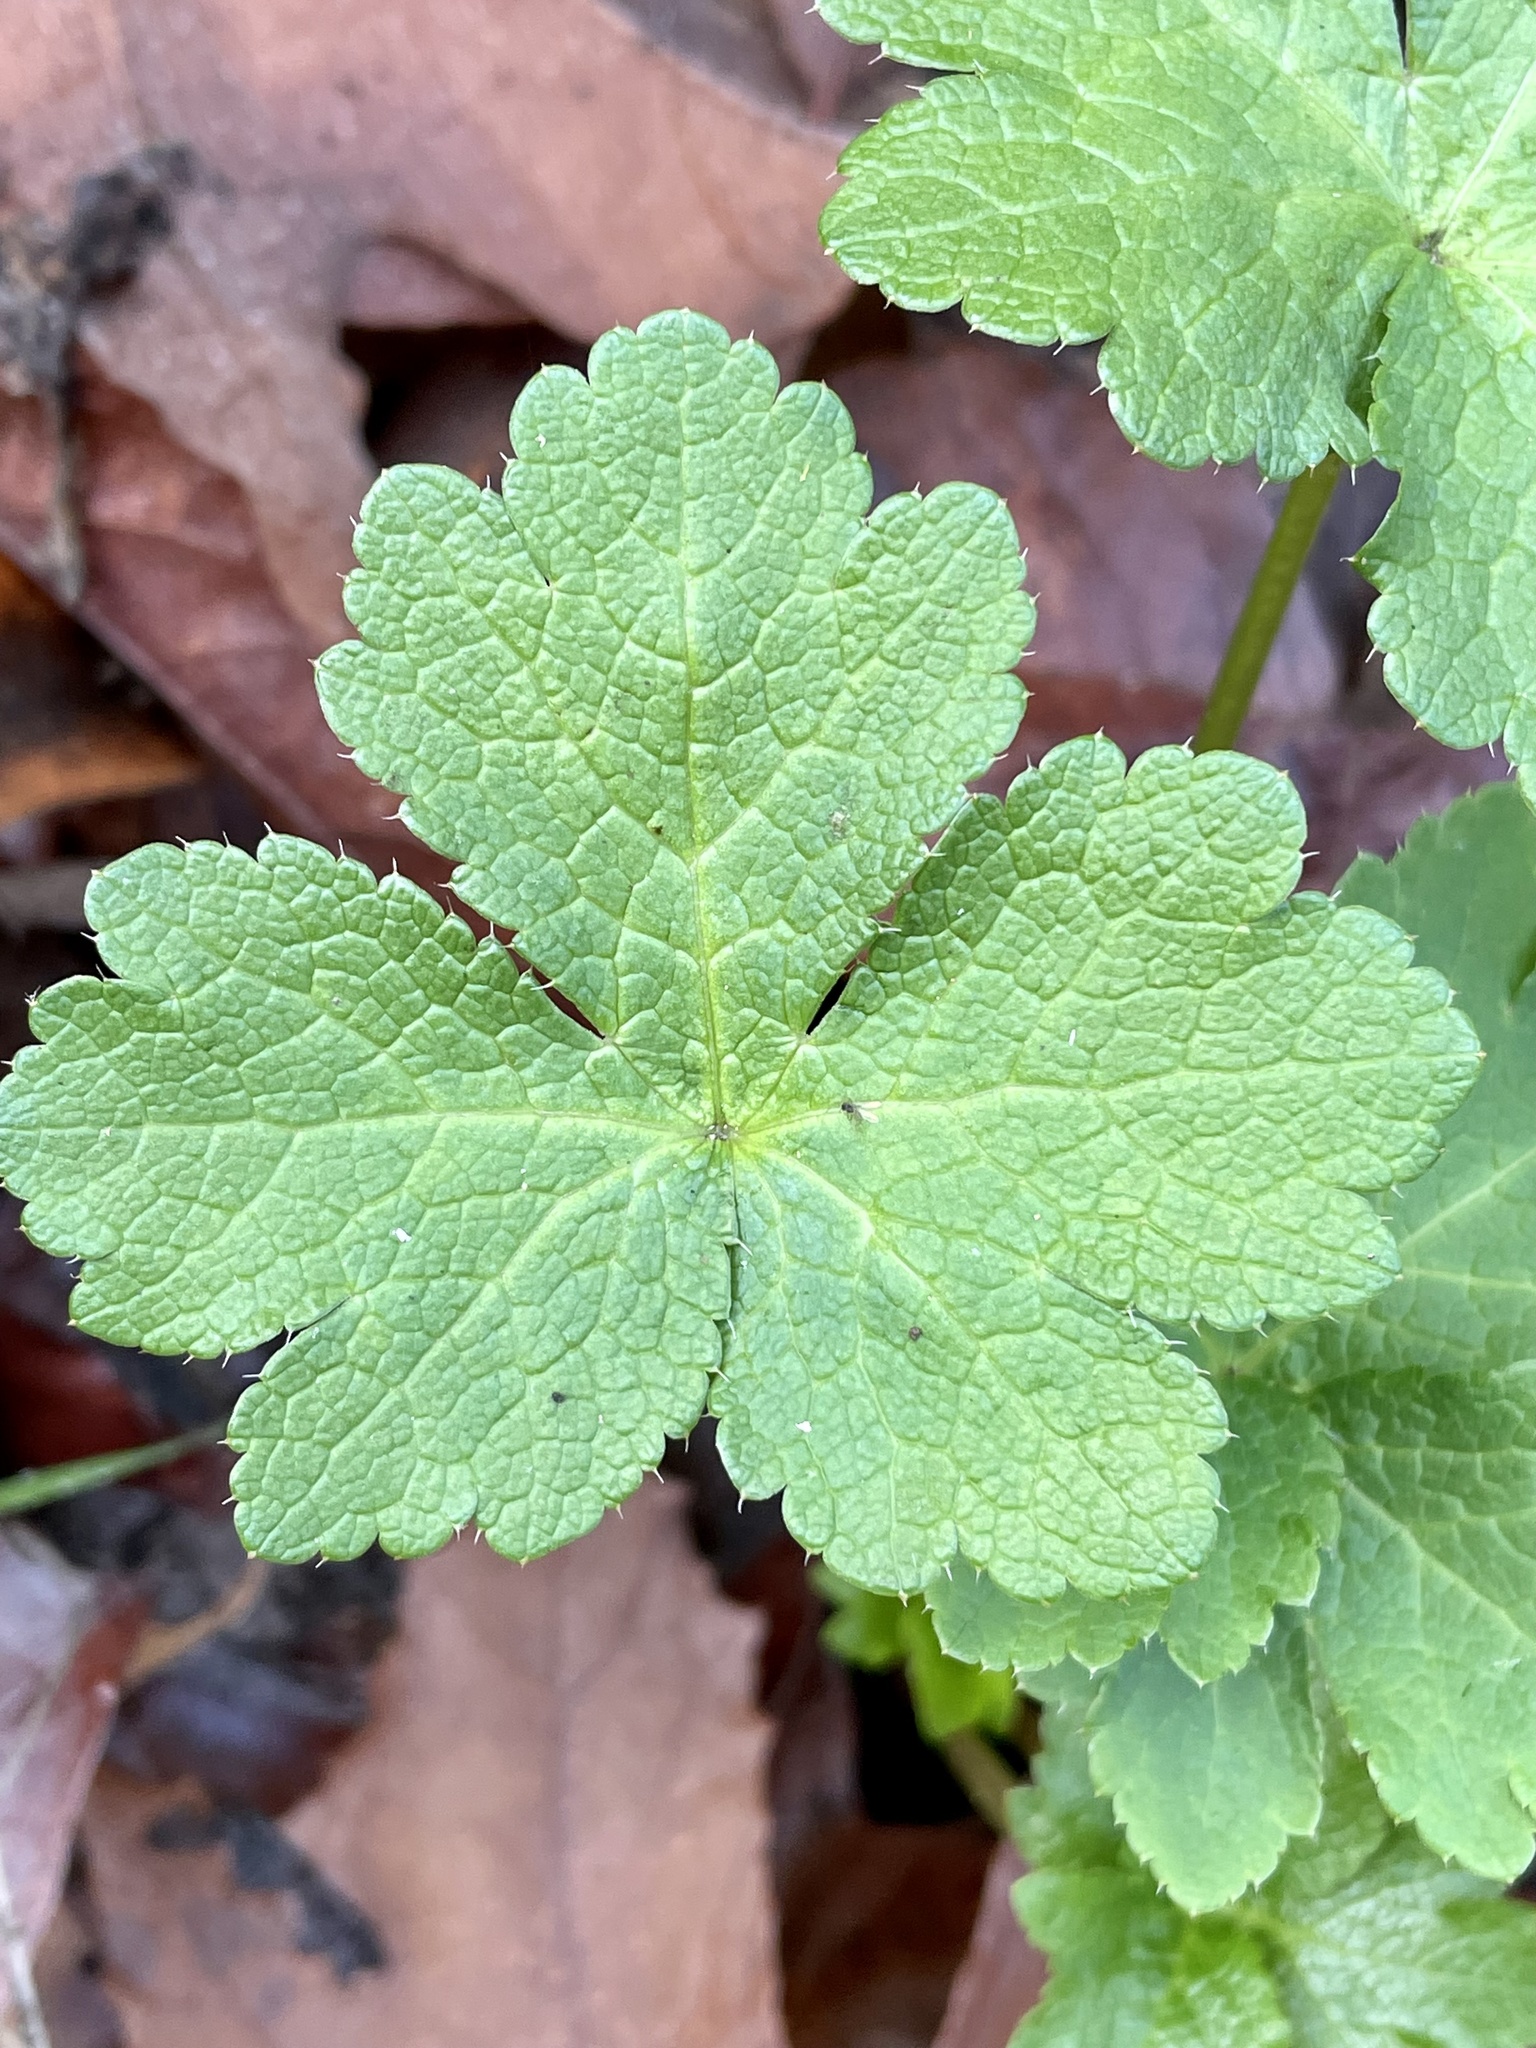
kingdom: Plantae
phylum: Tracheophyta
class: Magnoliopsida
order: Apiales
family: Apiaceae
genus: Sanicula
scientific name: Sanicula crassicaulis
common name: Western snakeroot
